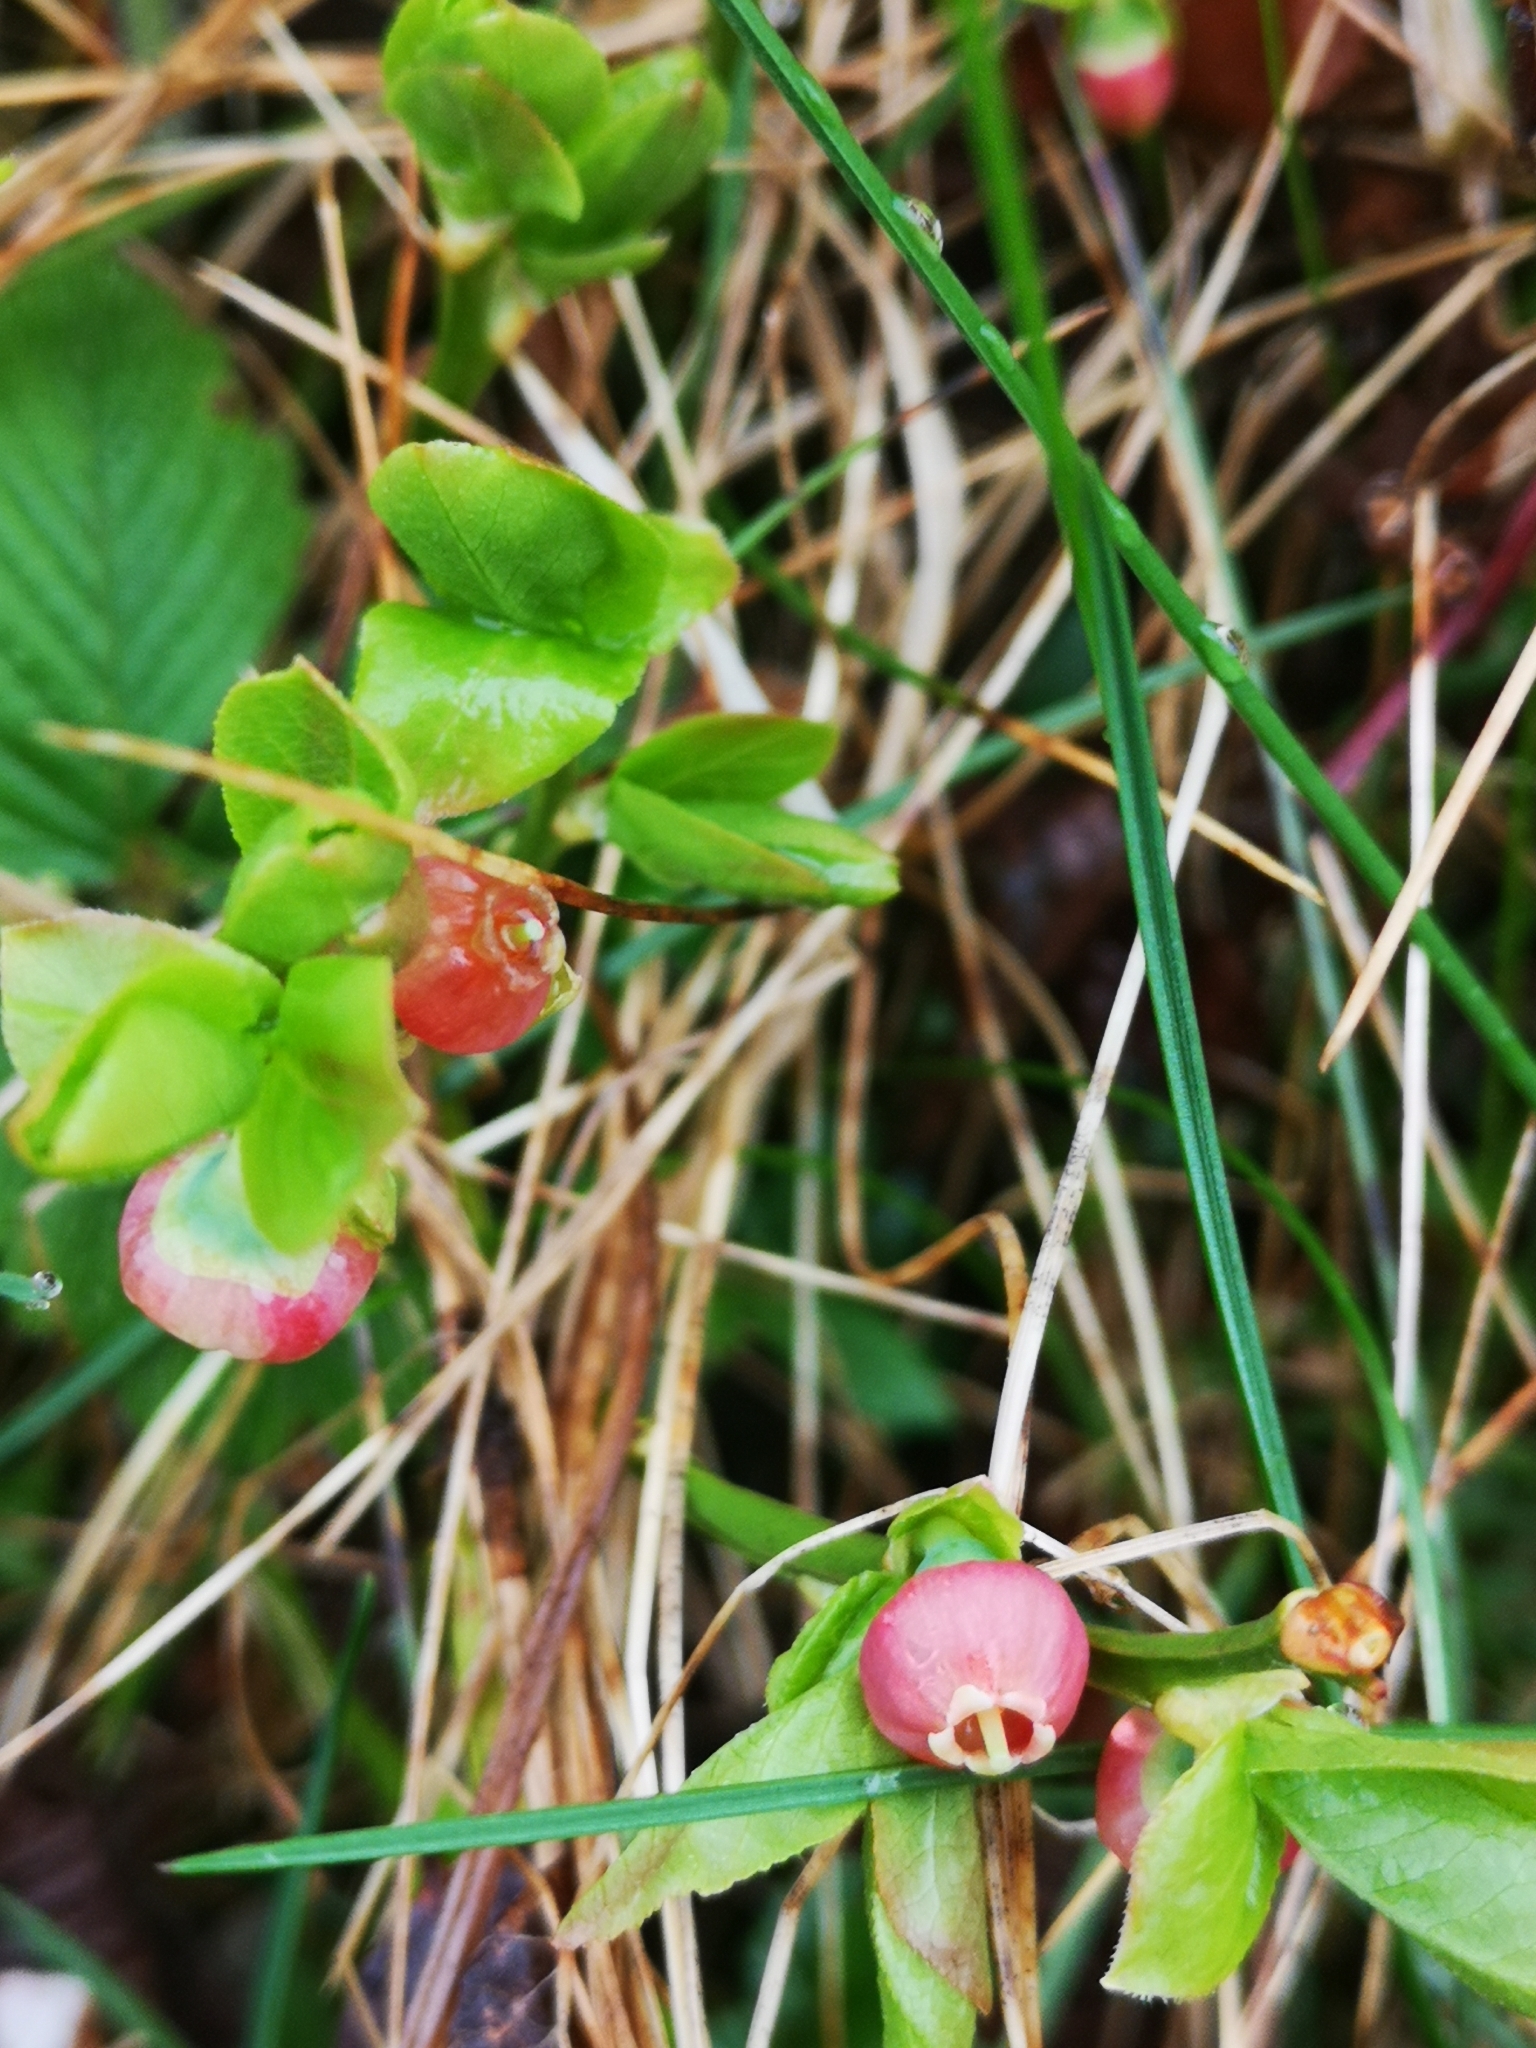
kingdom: Plantae
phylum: Tracheophyta
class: Magnoliopsida
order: Ericales
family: Ericaceae
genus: Vaccinium
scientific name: Vaccinium myrtillus
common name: Bilberry
